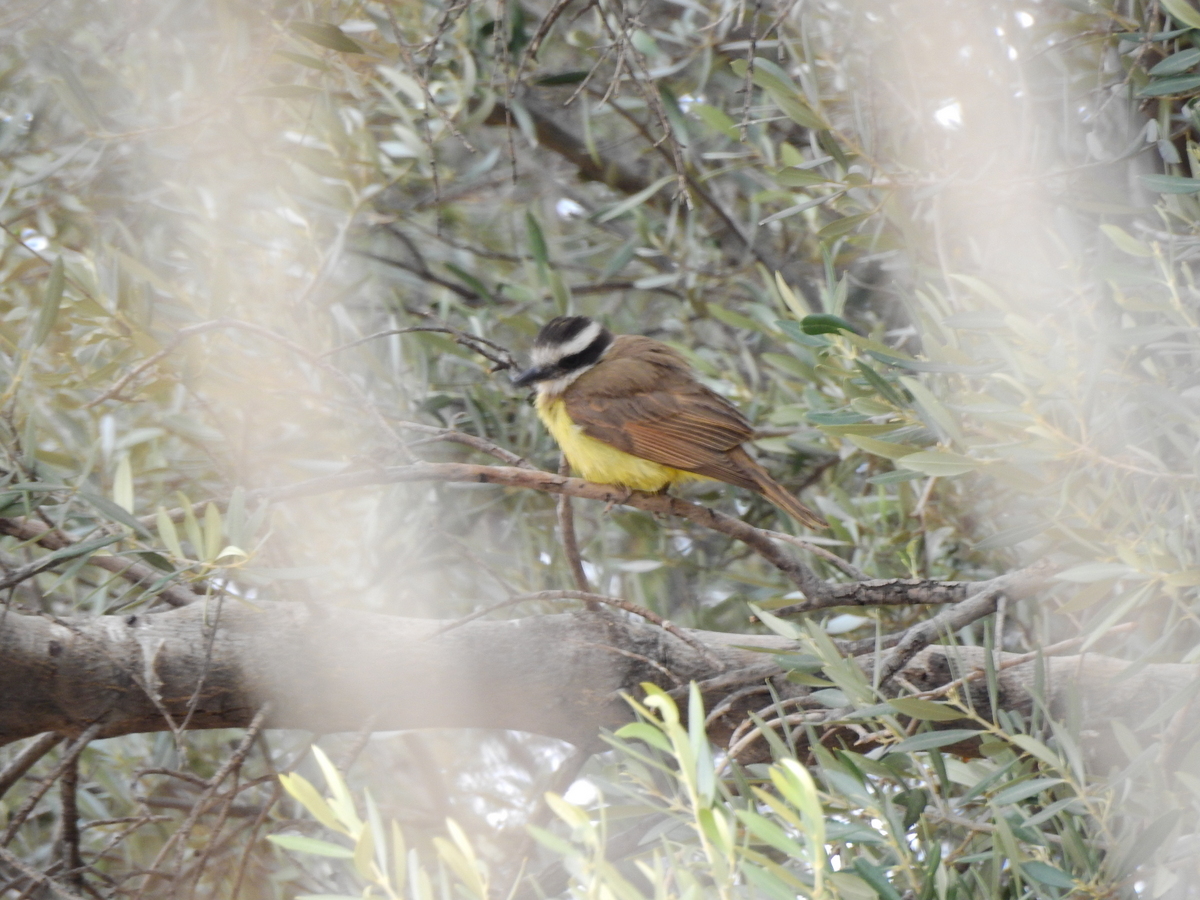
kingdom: Animalia
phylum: Chordata
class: Aves
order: Passeriformes
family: Tyrannidae
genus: Pitangus
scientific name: Pitangus sulphuratus
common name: Great kiskadee
